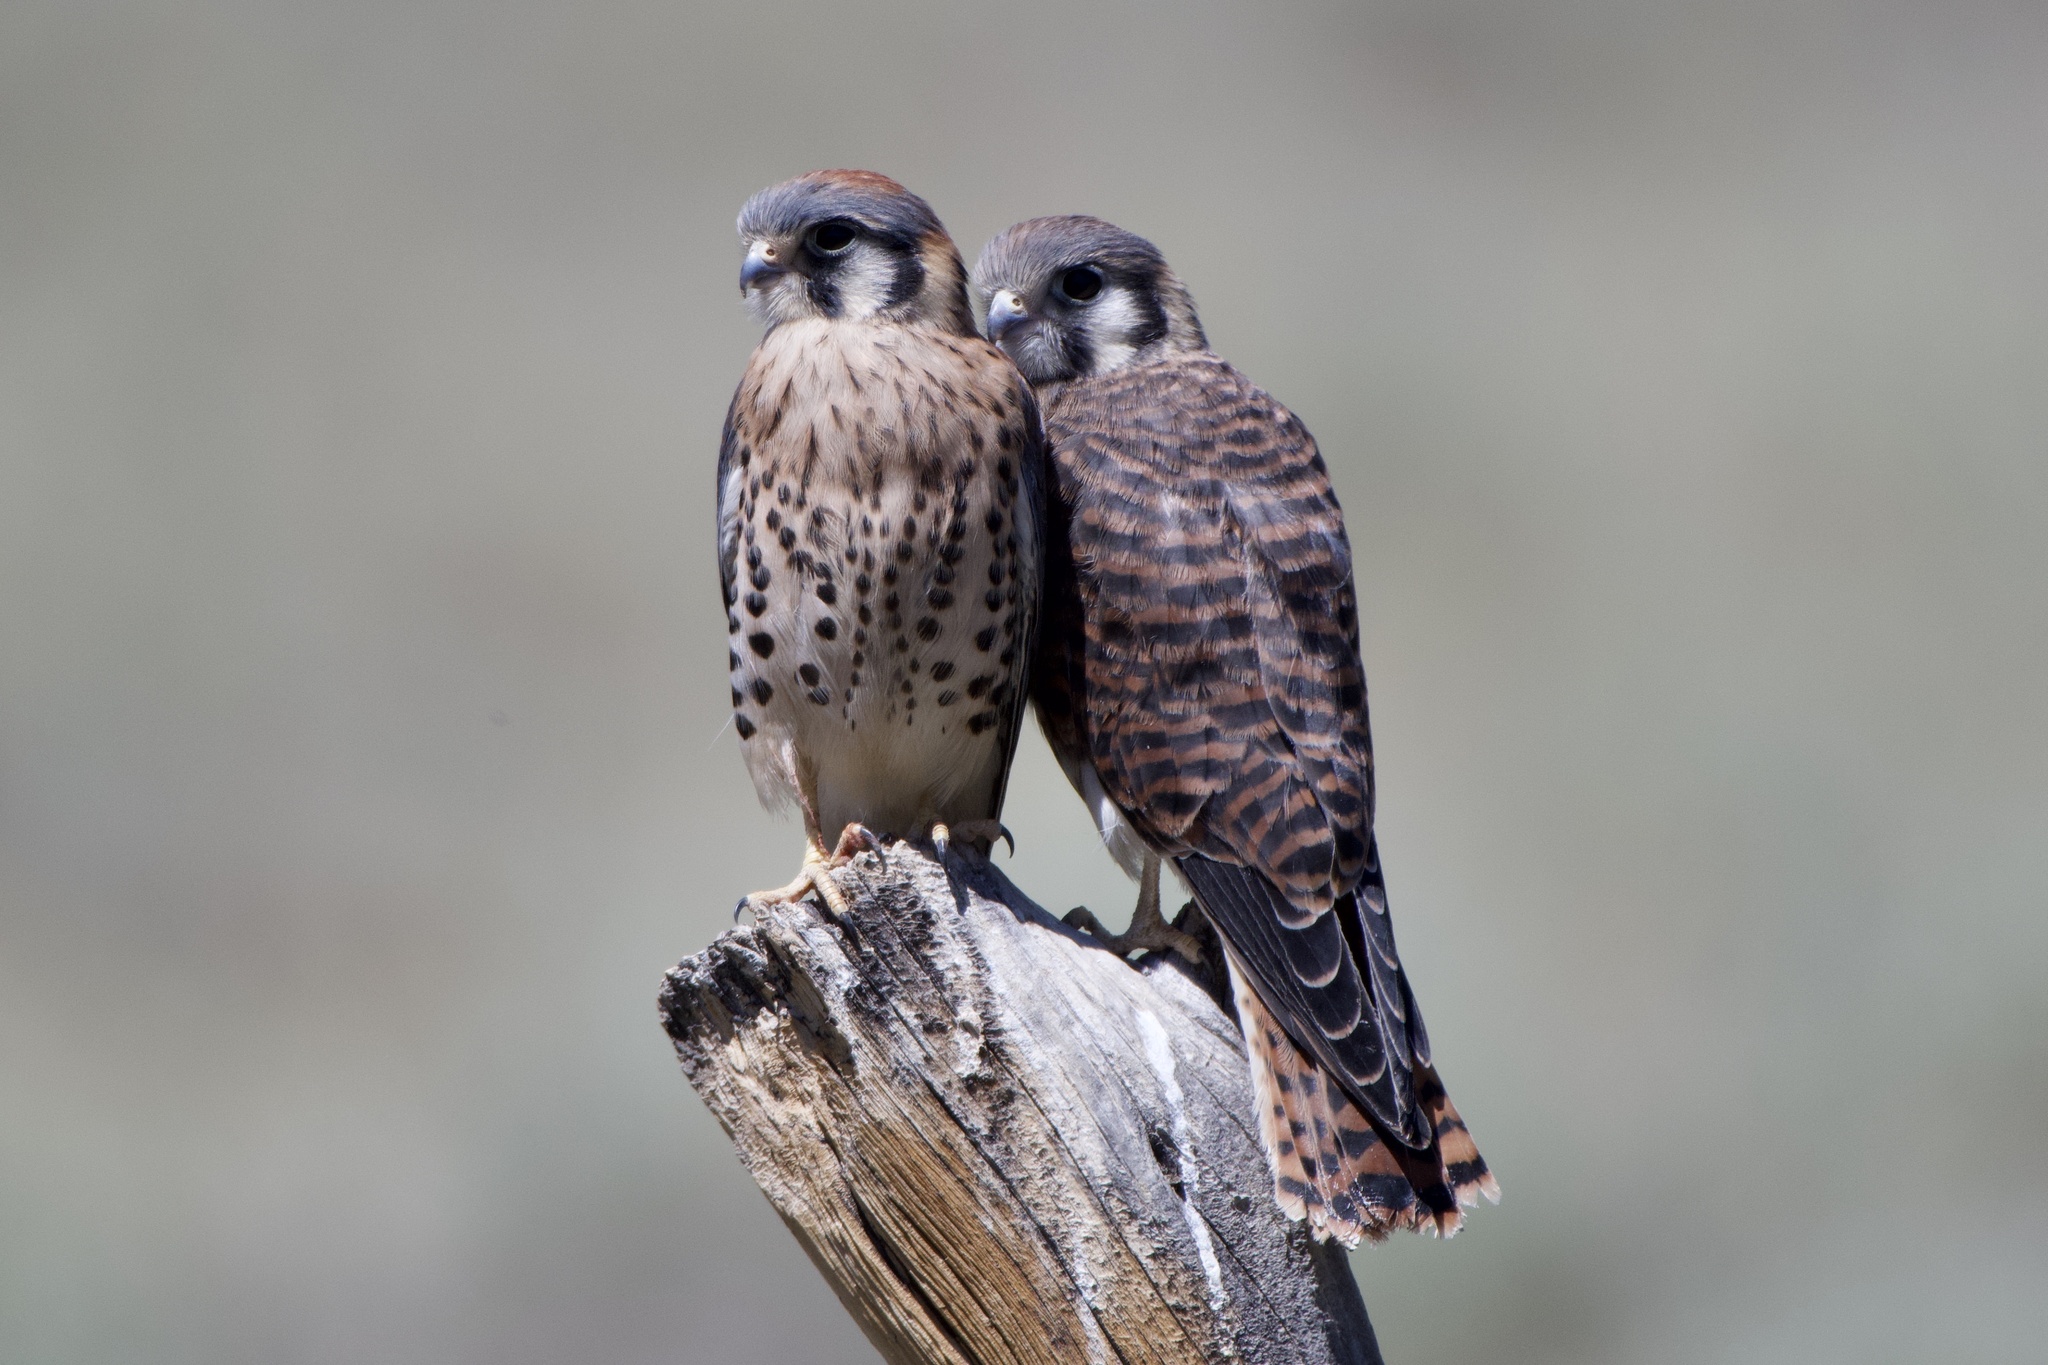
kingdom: Animalia
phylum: Chordata
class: Aves
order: Falconiformes
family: Falconidae
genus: Falco
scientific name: Falco sparverius
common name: American kestrel
